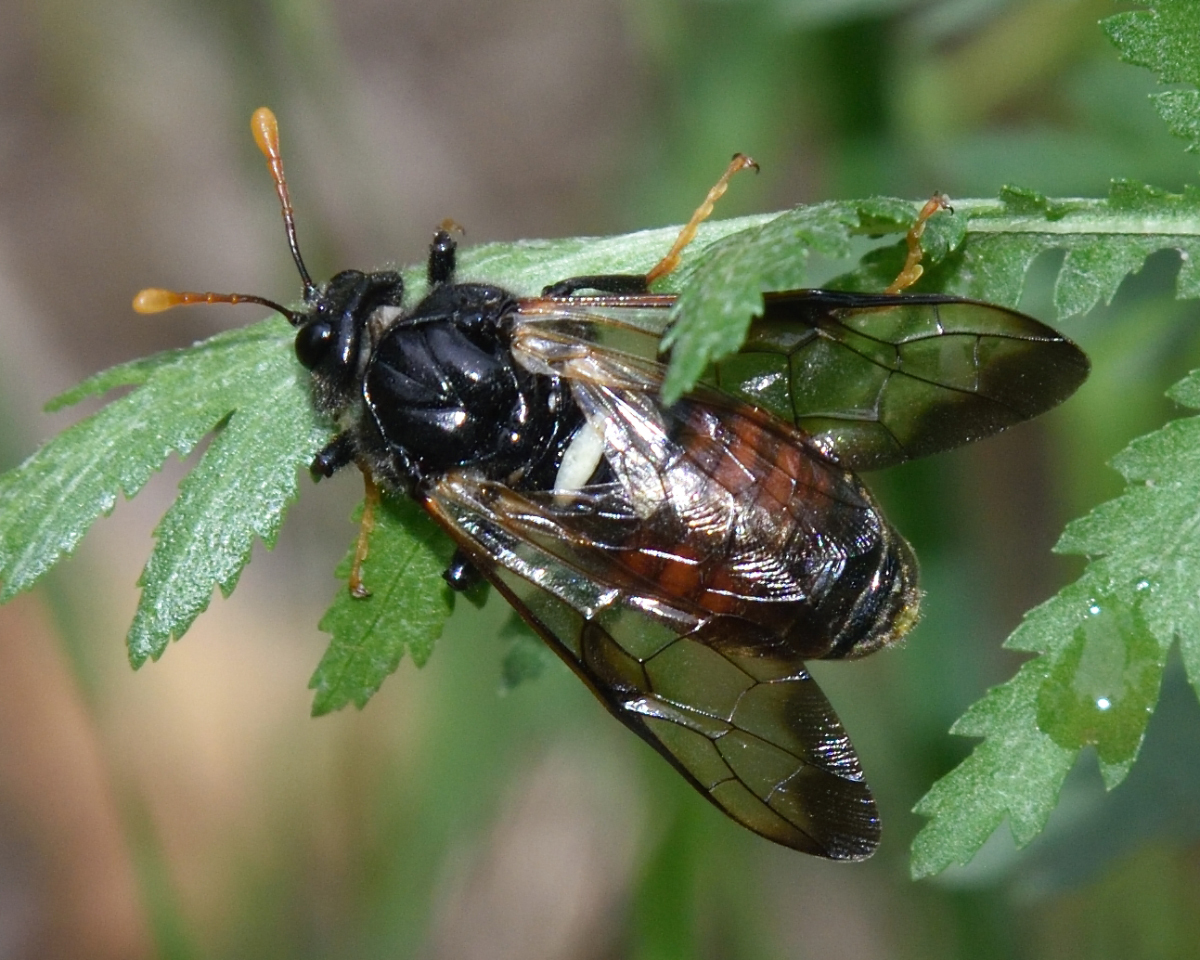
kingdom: Animalia
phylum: Arthropoda
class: Insecta
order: Hymenoptera
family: Cimbicidae
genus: Cimbex
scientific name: Cimbex femoratus
